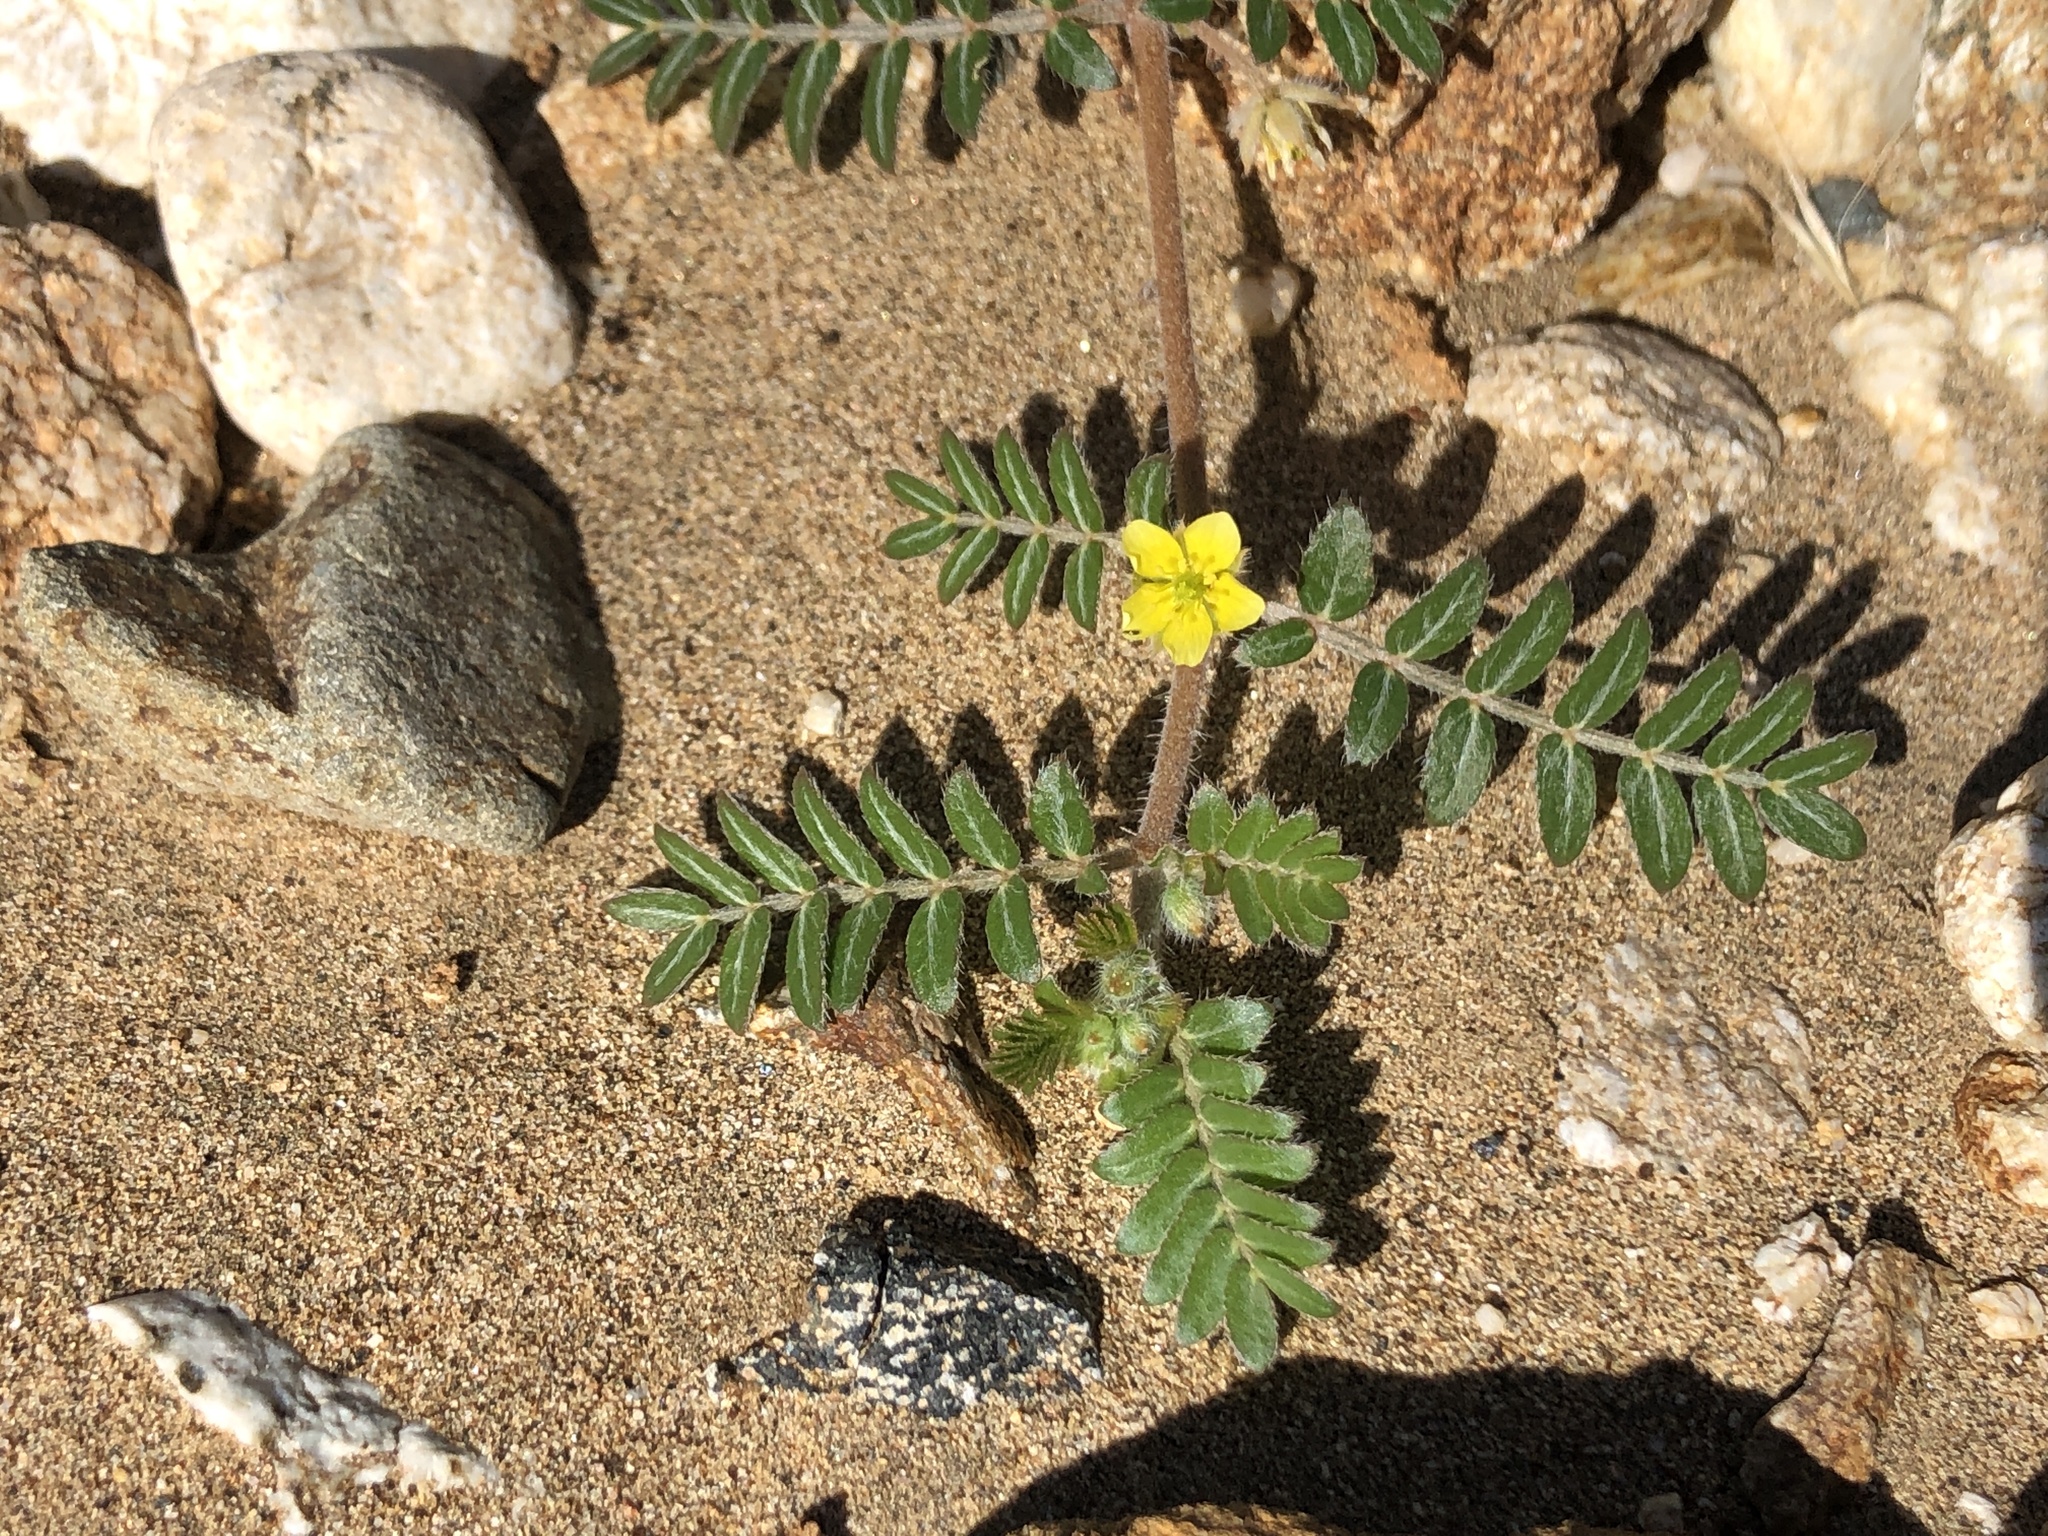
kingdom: Plantae
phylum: Tracheophyta
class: Magnoliopsida
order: Zygophyllales
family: Zygophyllaceae
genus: Tribulus
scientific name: Tribulus terrestris
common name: Puncturevine
